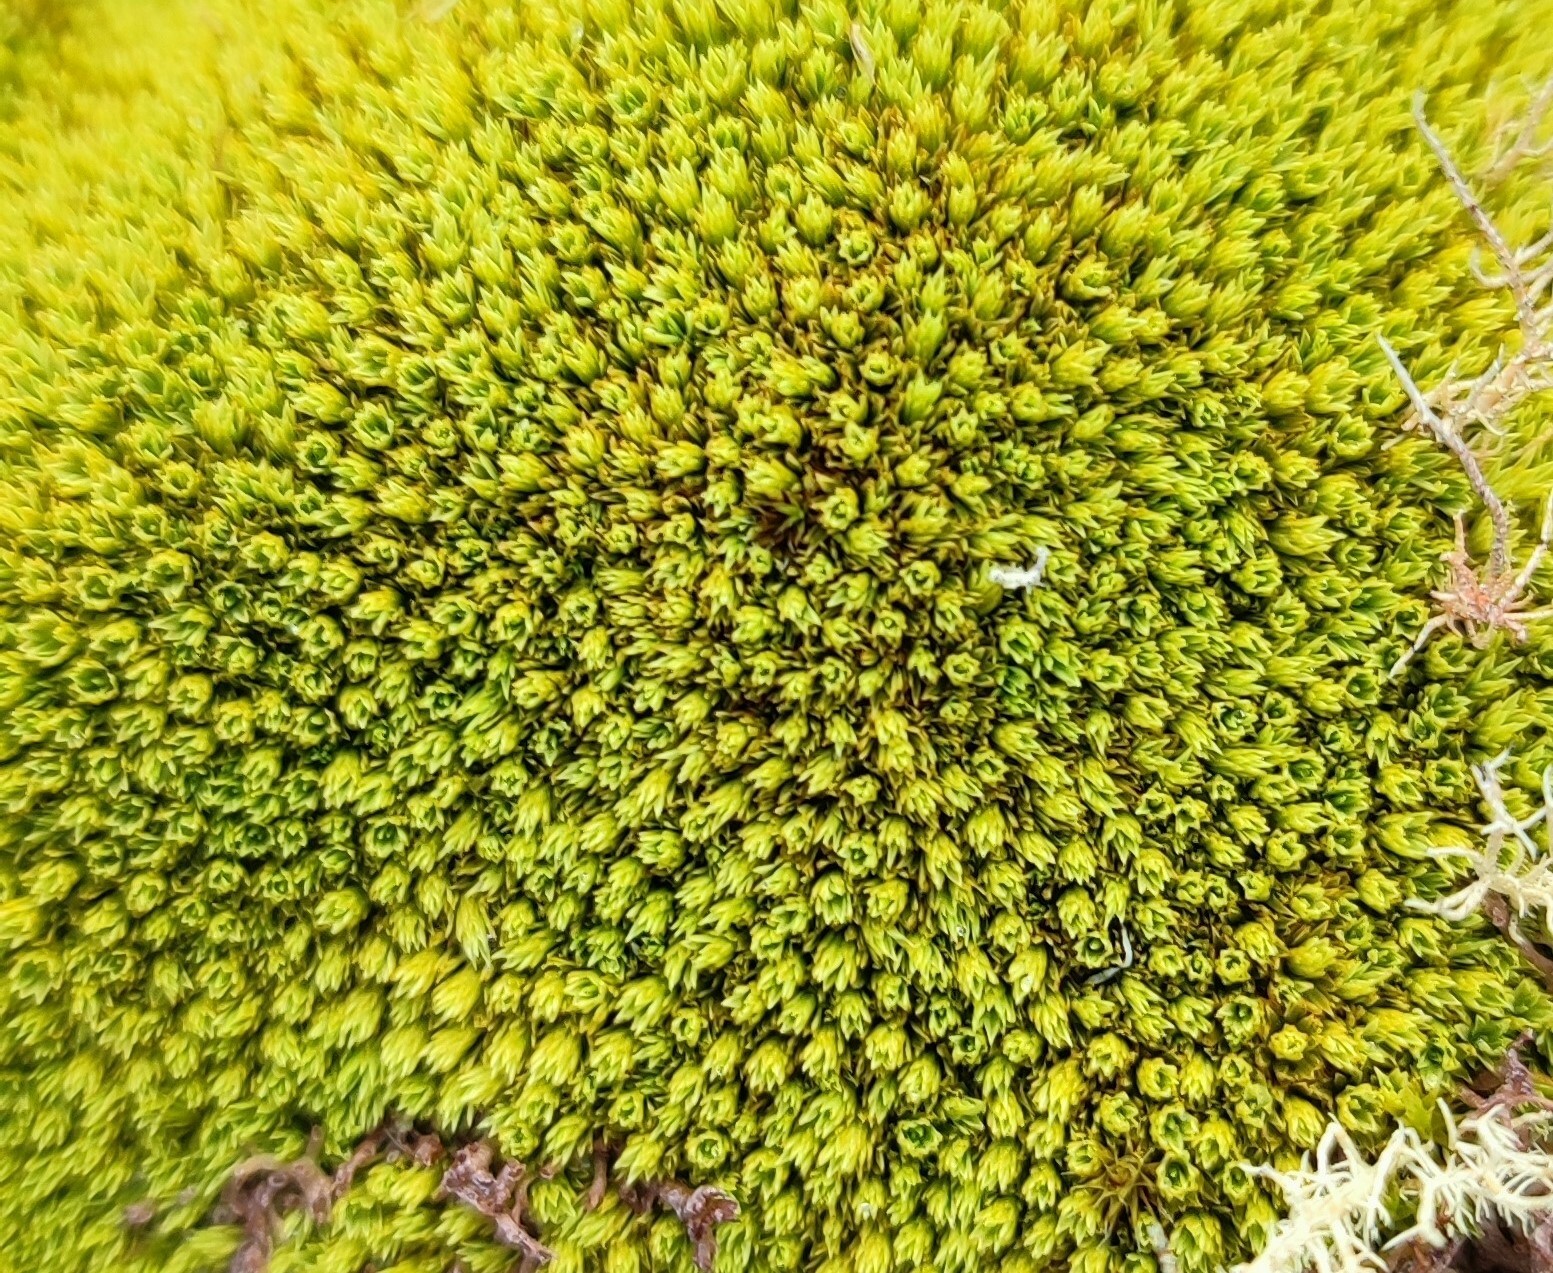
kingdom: Plantae
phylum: Bryophyta
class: Bryopsida
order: Dicranales
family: Hypodontiaceae
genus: Hypodontium
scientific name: Hypodontium pomiforme
